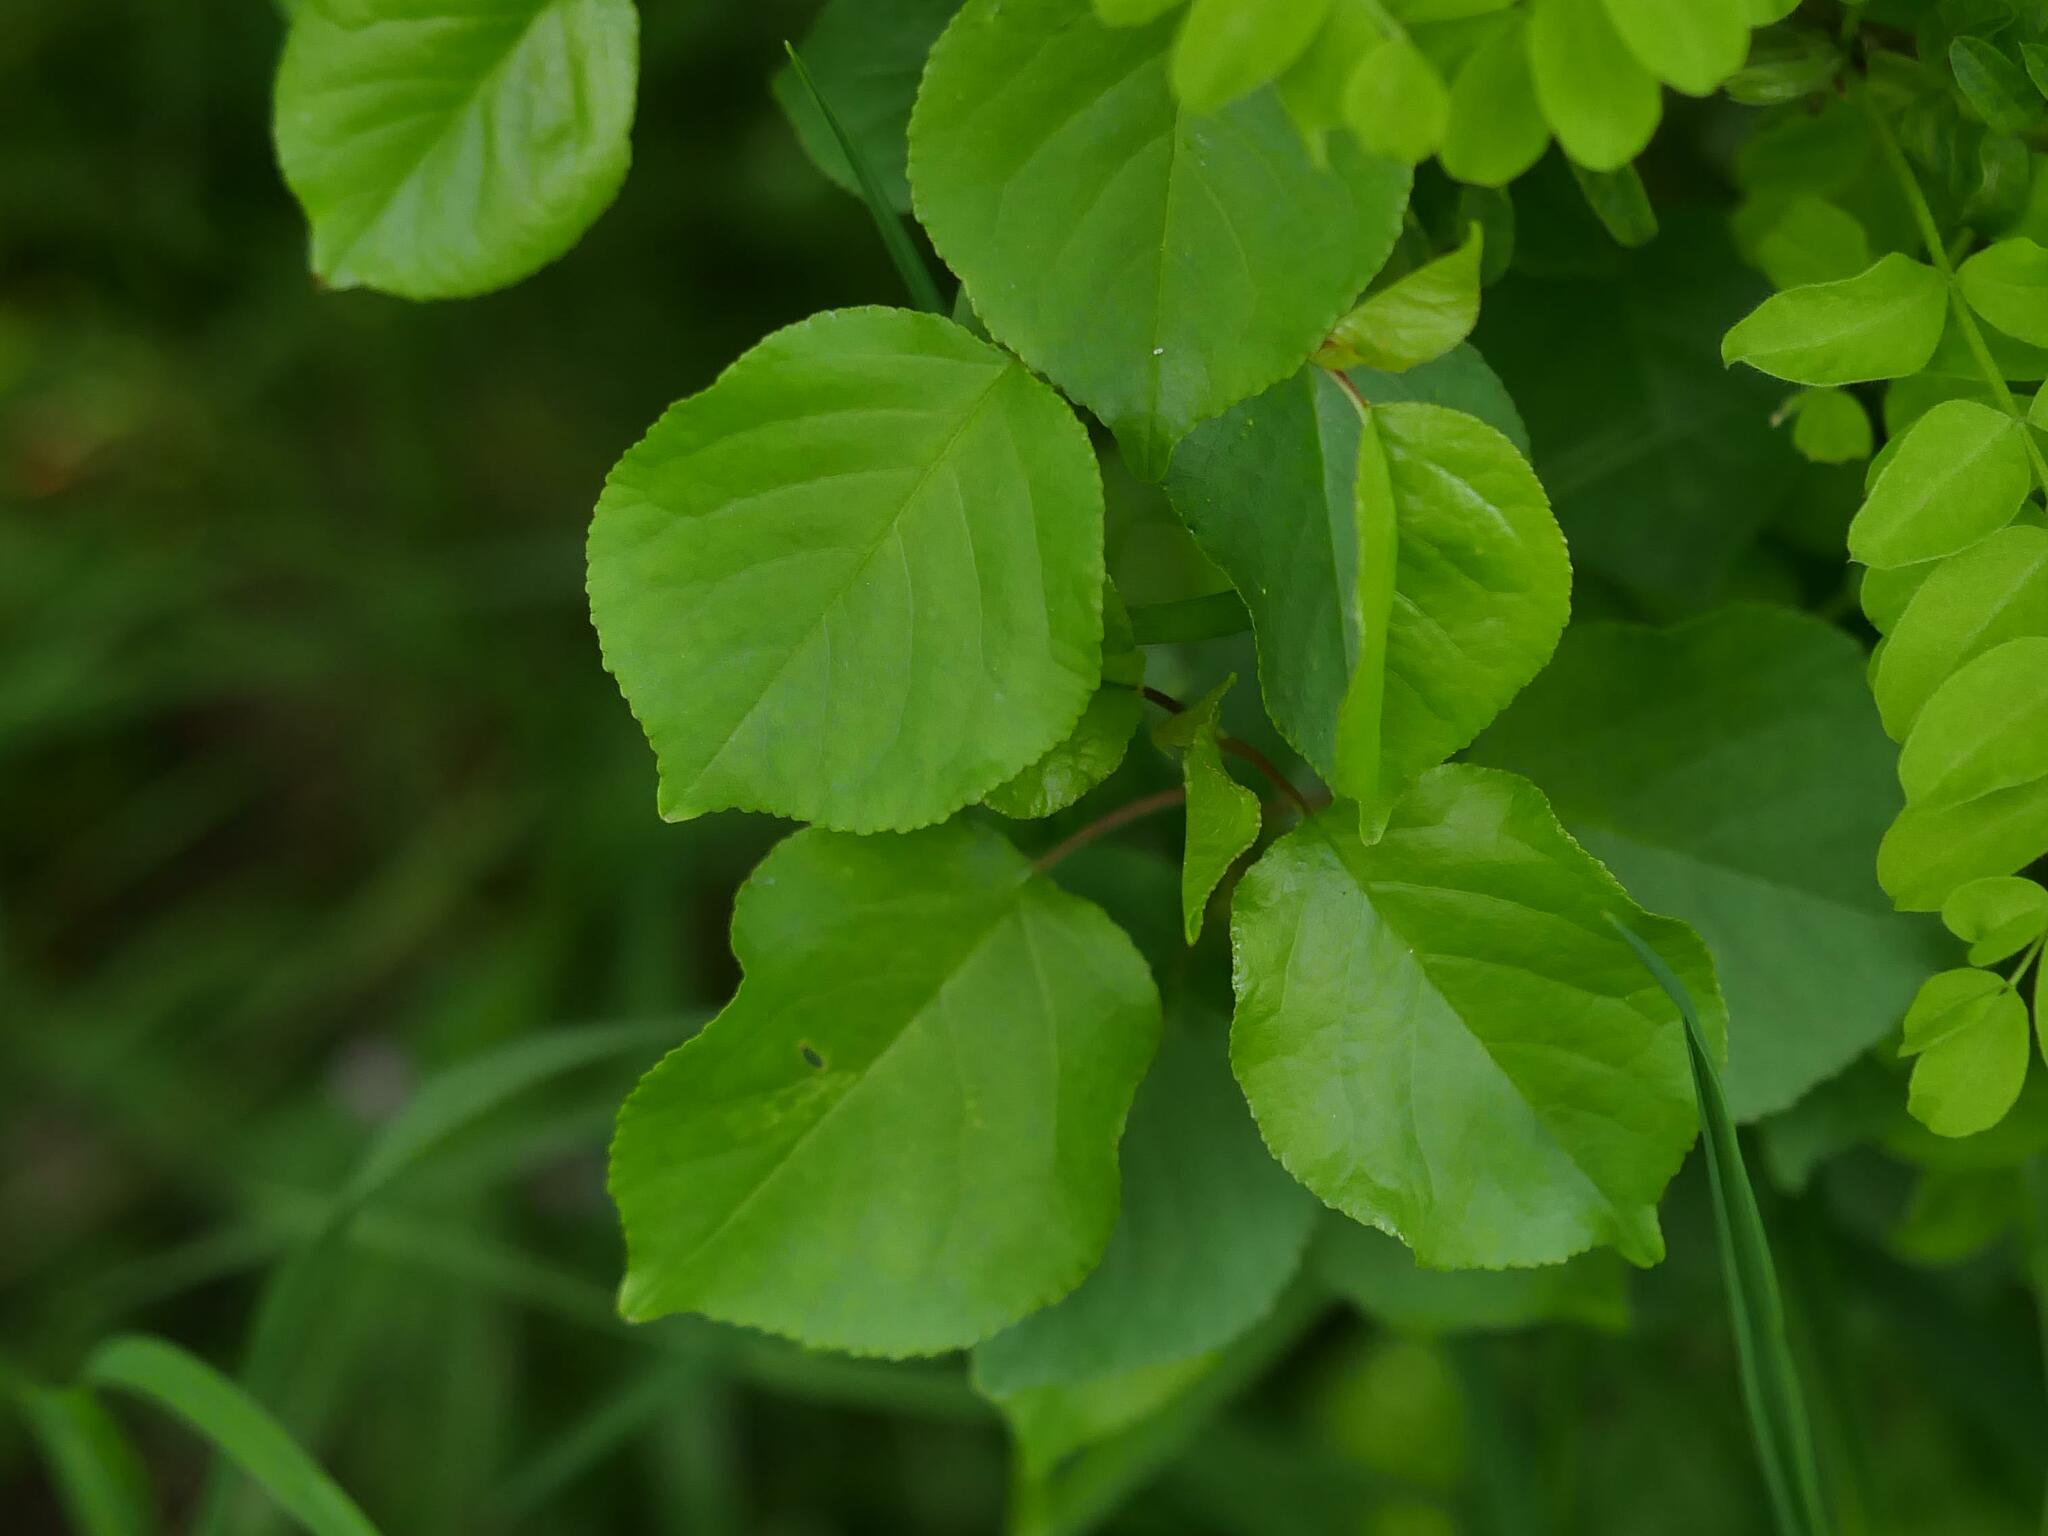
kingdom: Plantae
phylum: Tracheophyta
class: Magnoliopsida
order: Rosales
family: Rosaceae
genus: Prunus
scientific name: Prunus mahaleb
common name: Mahaleb cherry
